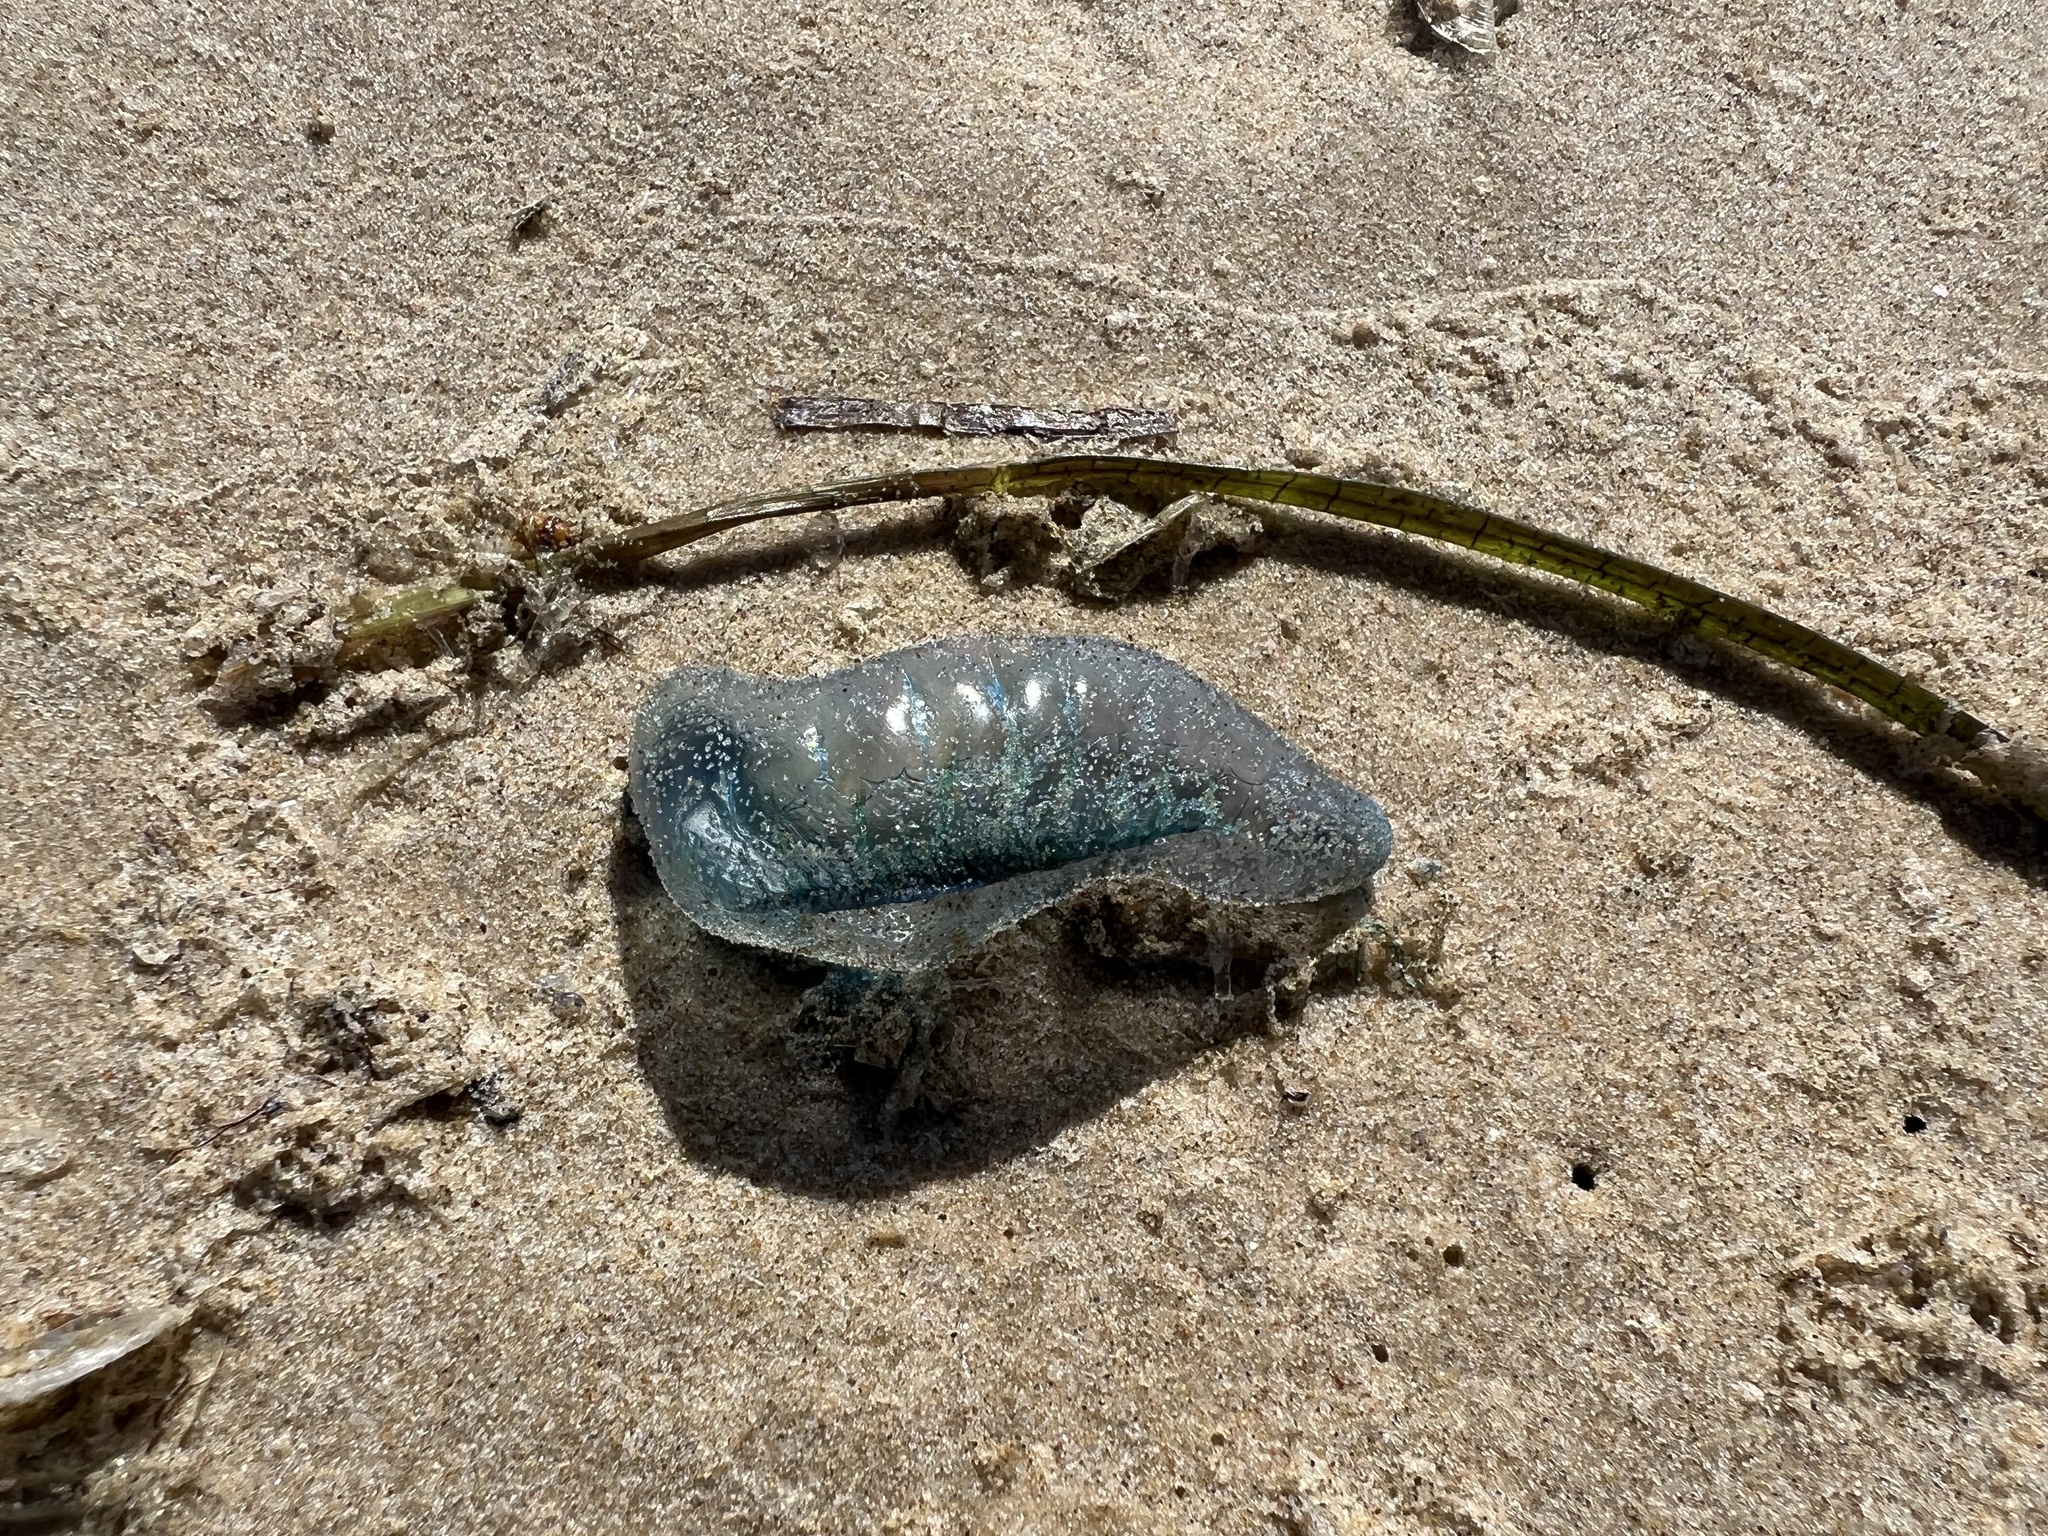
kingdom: Animalia
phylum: Cnidaria
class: Hydrozoa
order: Siphonophorae
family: Physaliidae
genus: Physalia
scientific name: Physalia physalis
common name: Portuguese man-of-war
